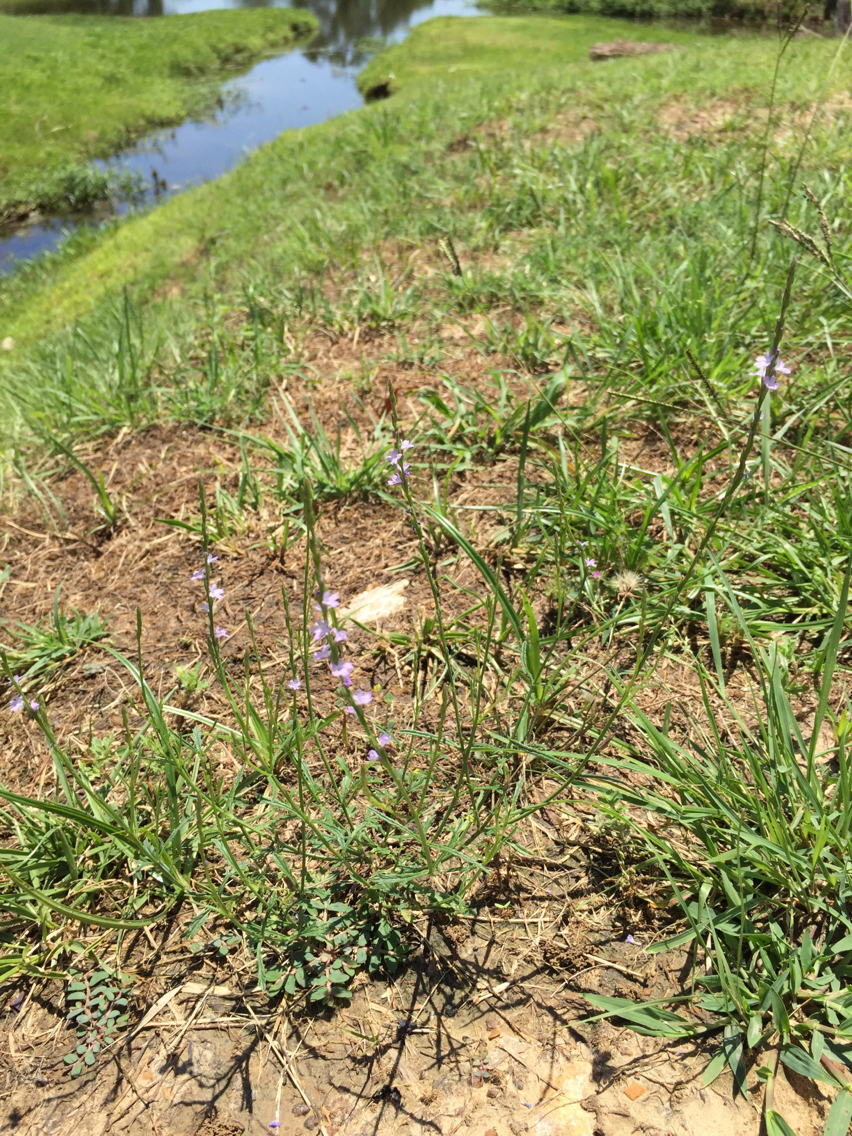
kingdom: Plantae
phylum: Tracheophyta
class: Magnoliopsida
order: Lamiales
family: Verbenaceae
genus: Verbena
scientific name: Verbena halei
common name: Texas vervain
